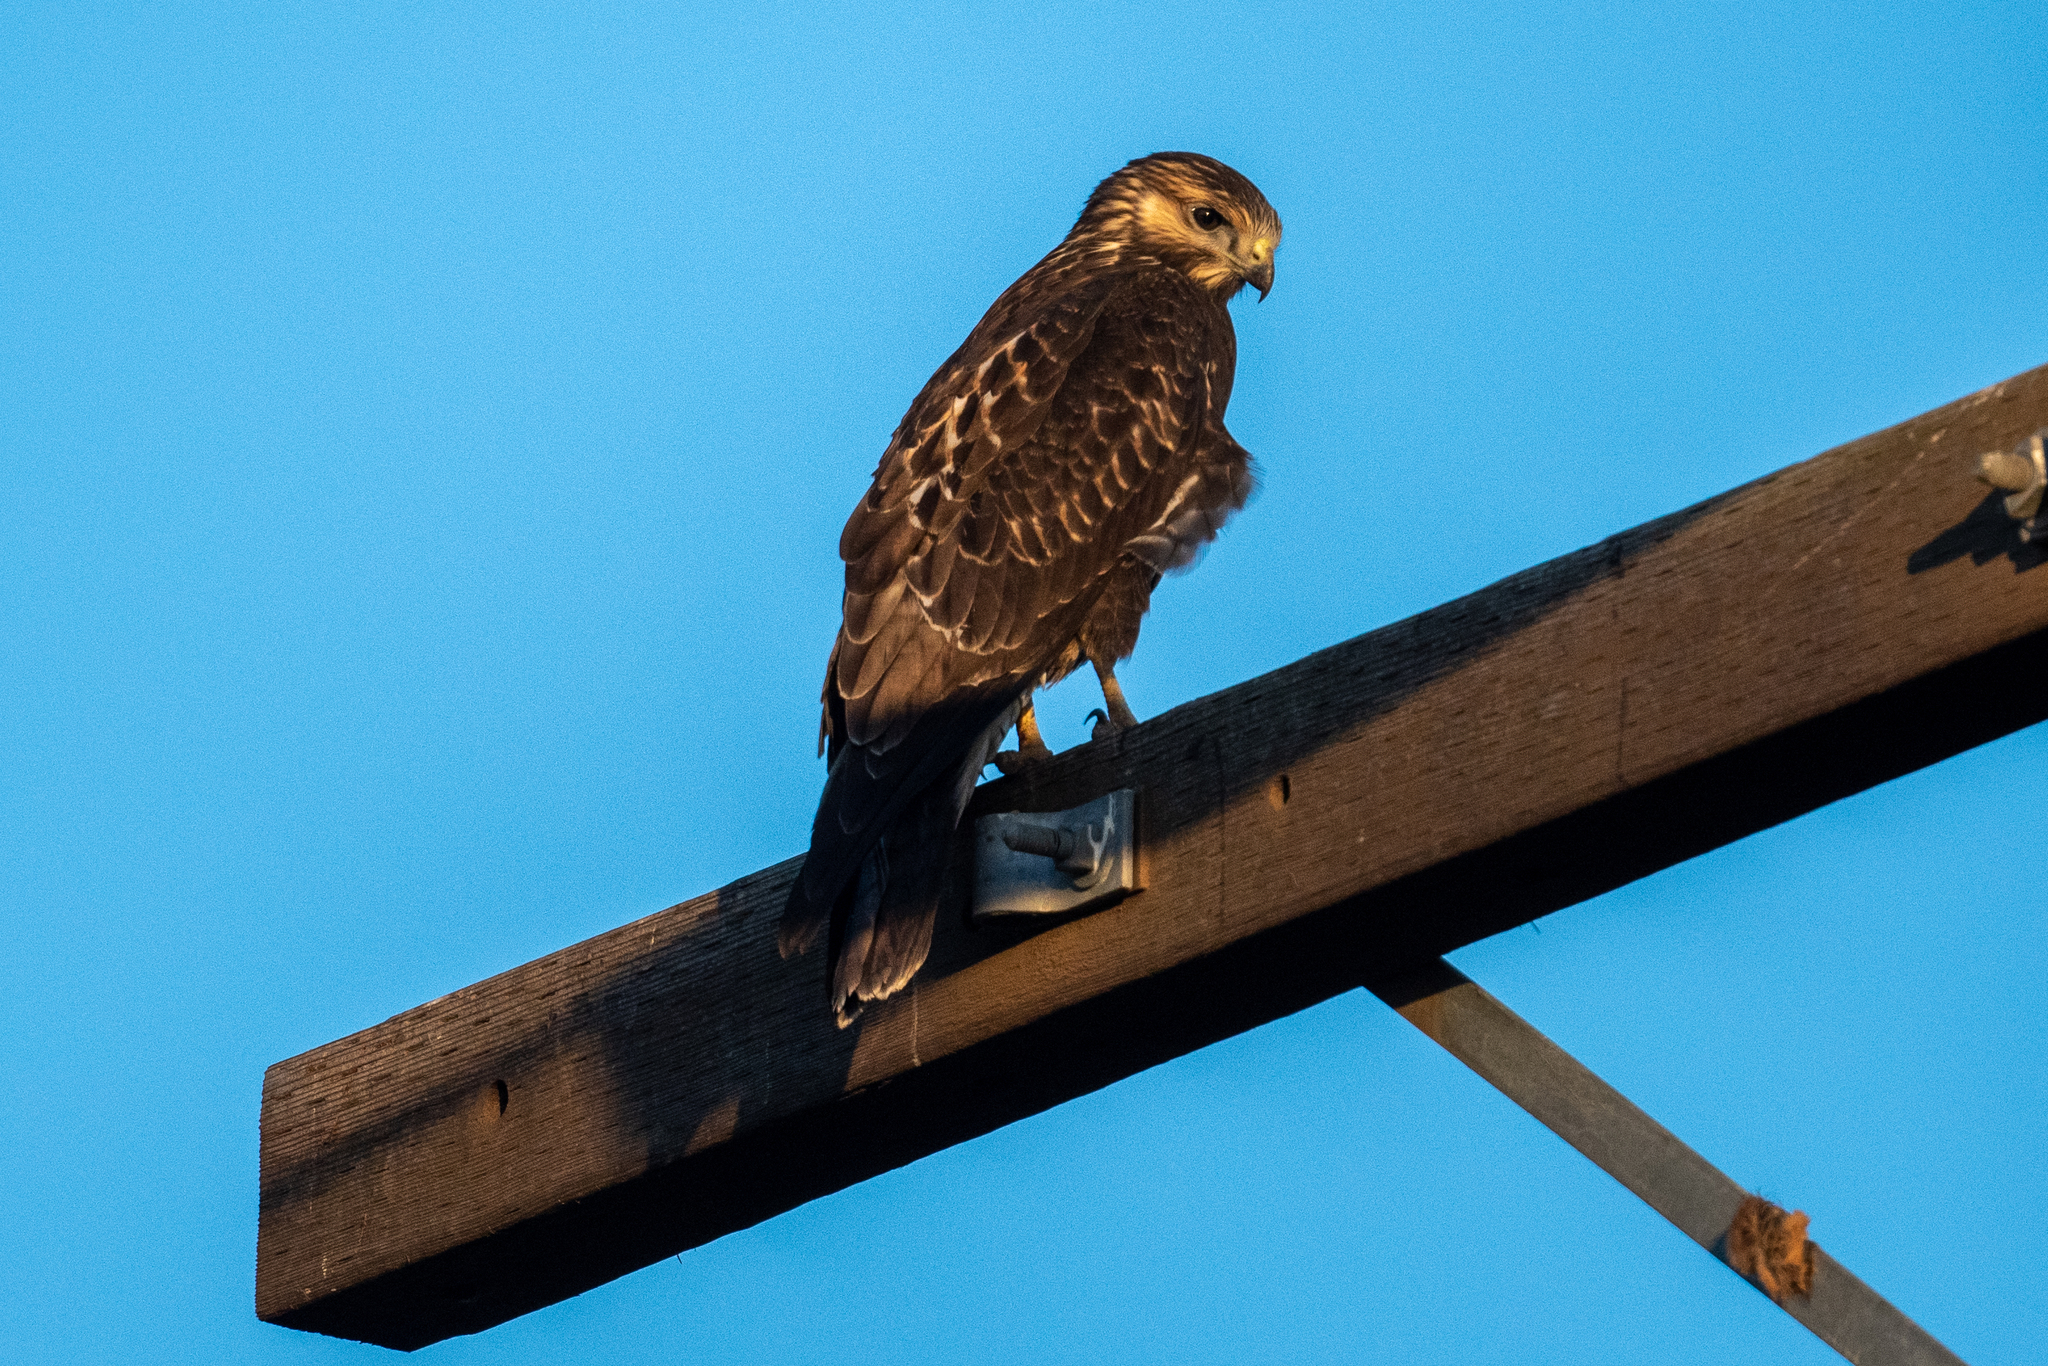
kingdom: Animalia
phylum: Chordata
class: Aves
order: Accipitriformes
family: Accipitridae
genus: Buteo
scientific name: Buteo swainsoni
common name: Swainson's hawk
